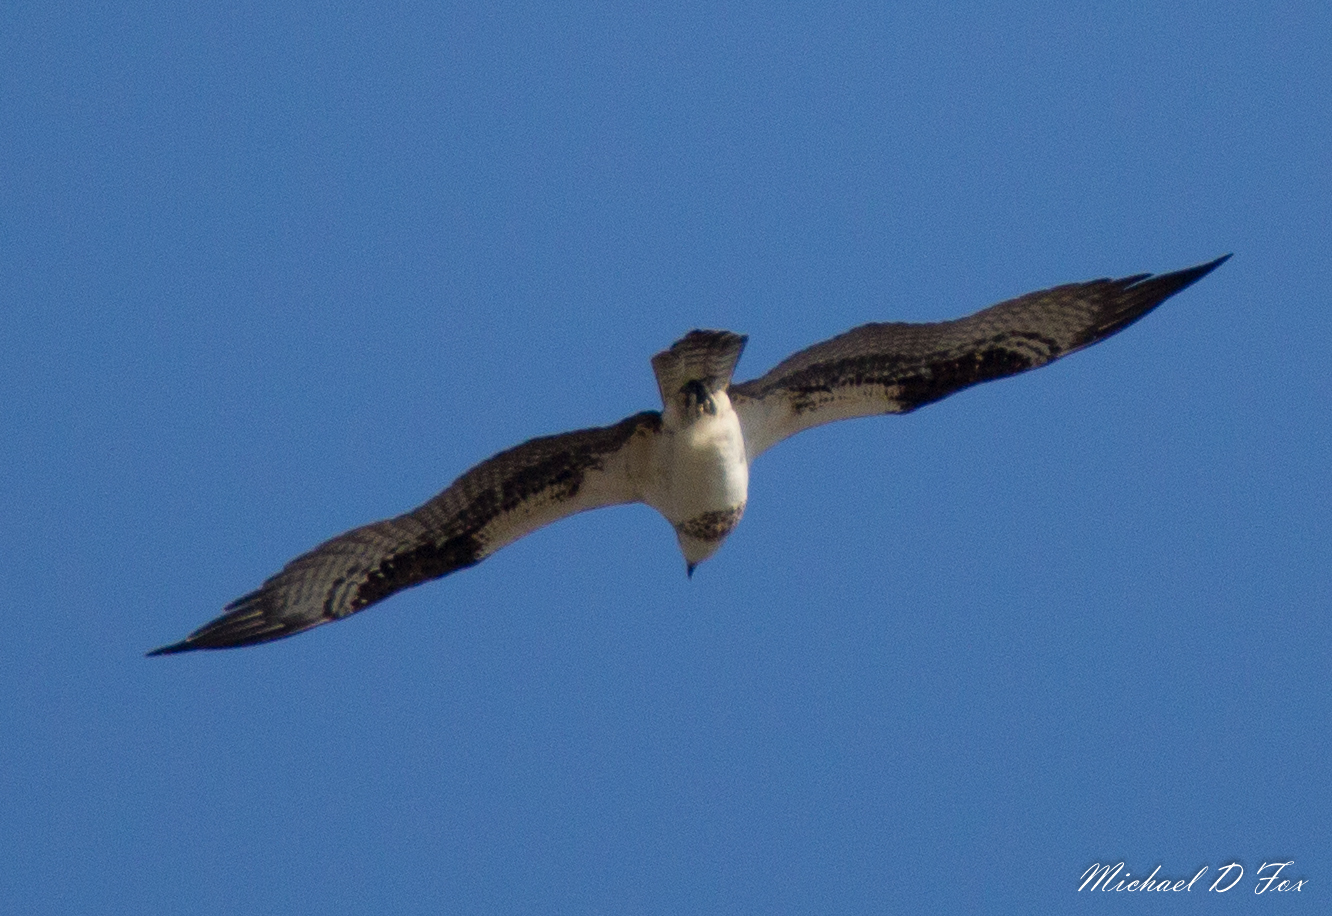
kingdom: Animalia
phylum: Chordata
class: Aves
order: Accipitriformes
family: Pandionidae
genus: Pandion
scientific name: Pandion haliaetus
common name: Osprey
